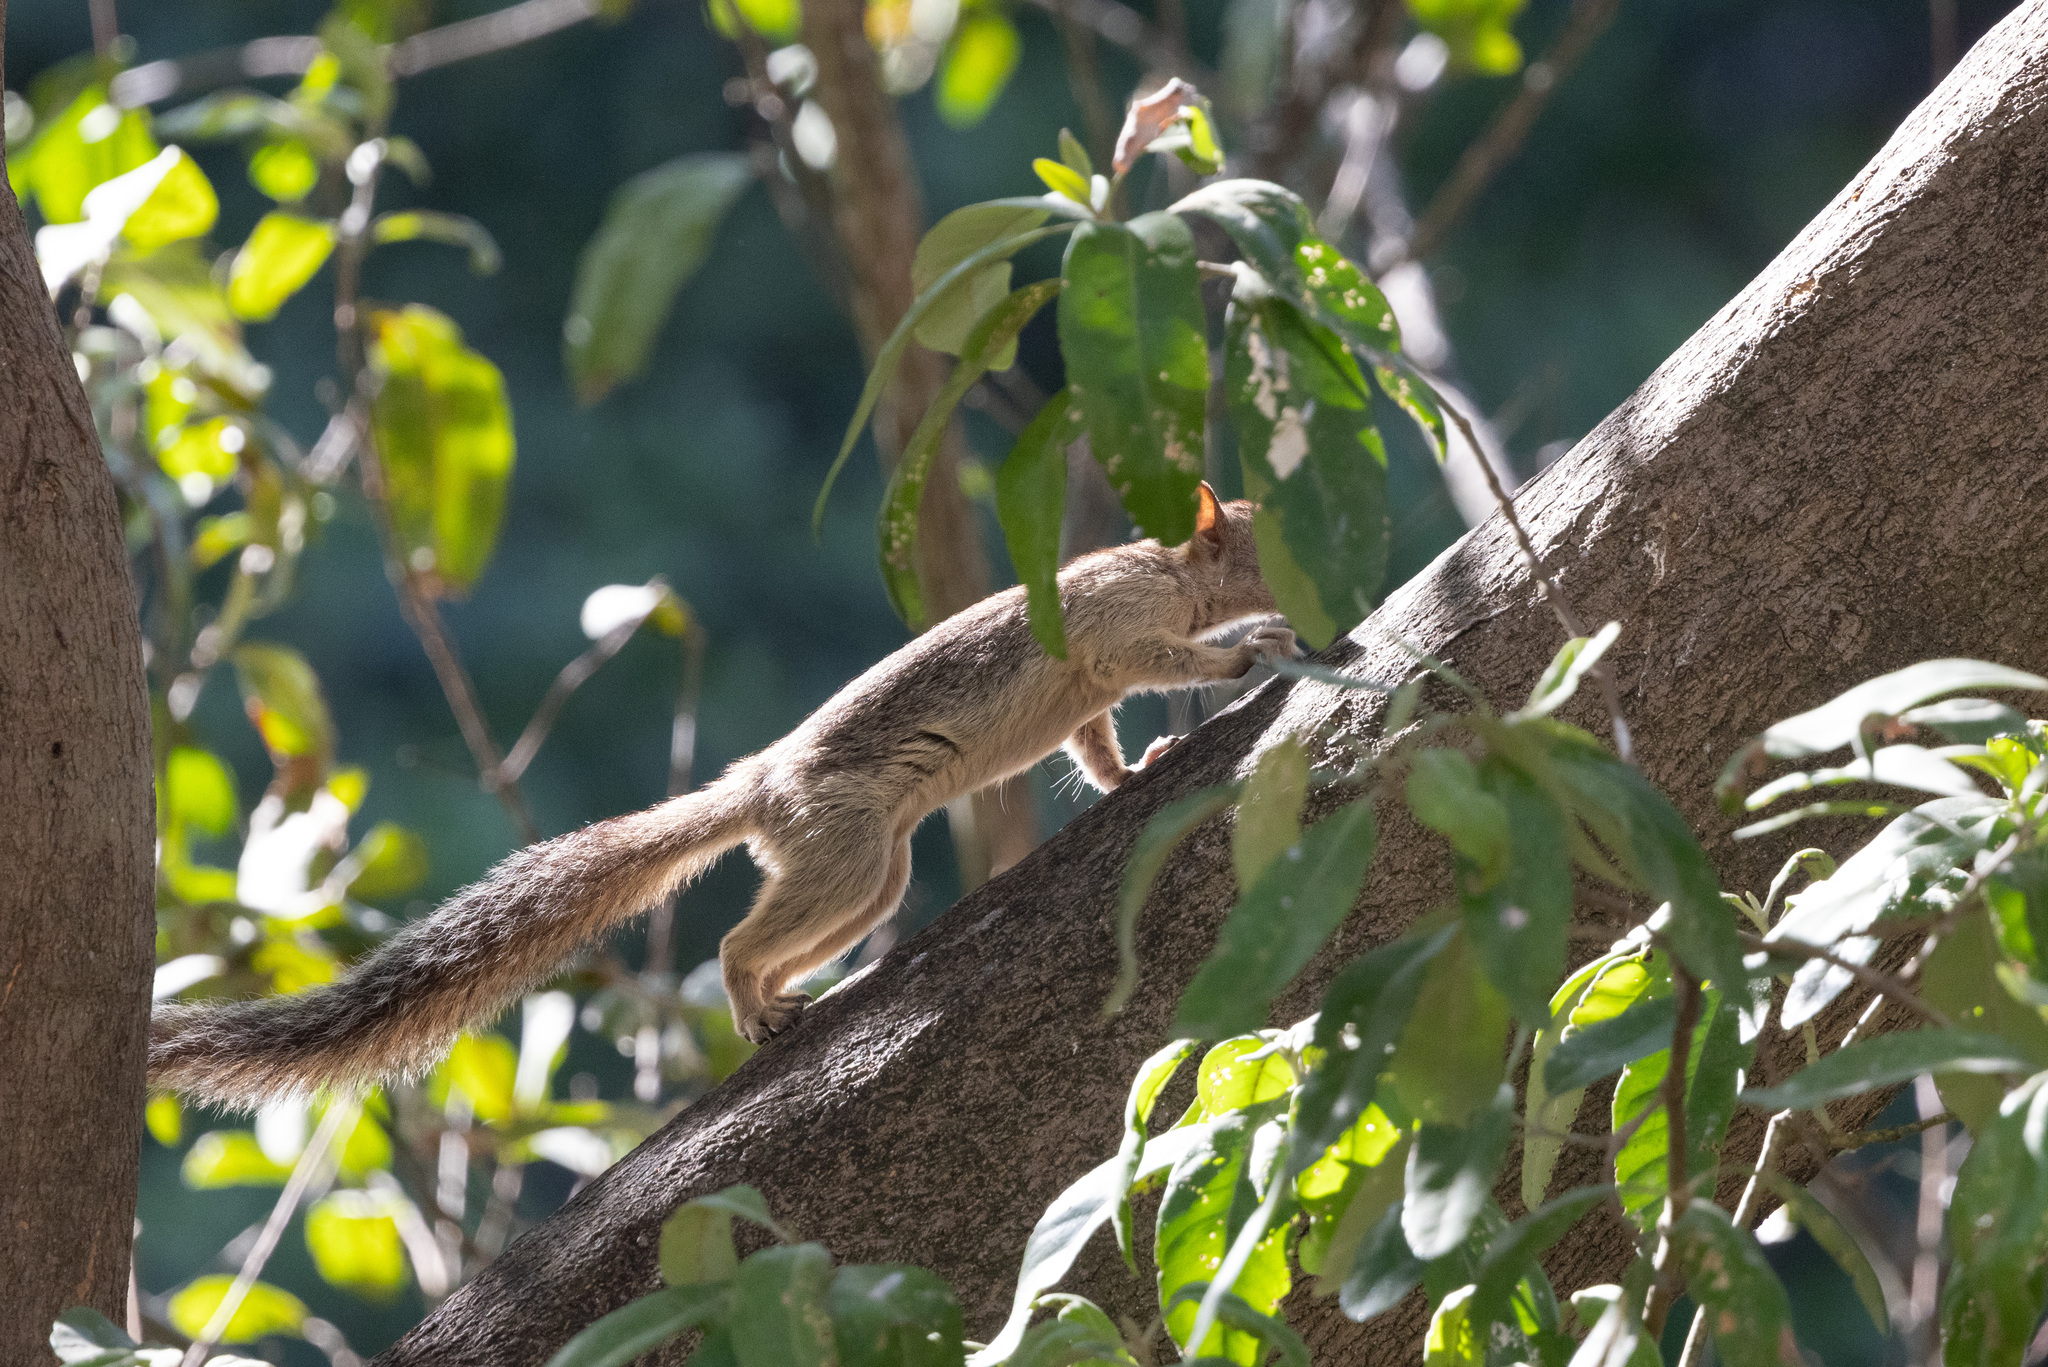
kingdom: Animalia
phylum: Chordata
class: Mammalia
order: Rodentia
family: Sciuridae
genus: Sciurus
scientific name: Sciurus variegatoides
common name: Variegated squirrel
